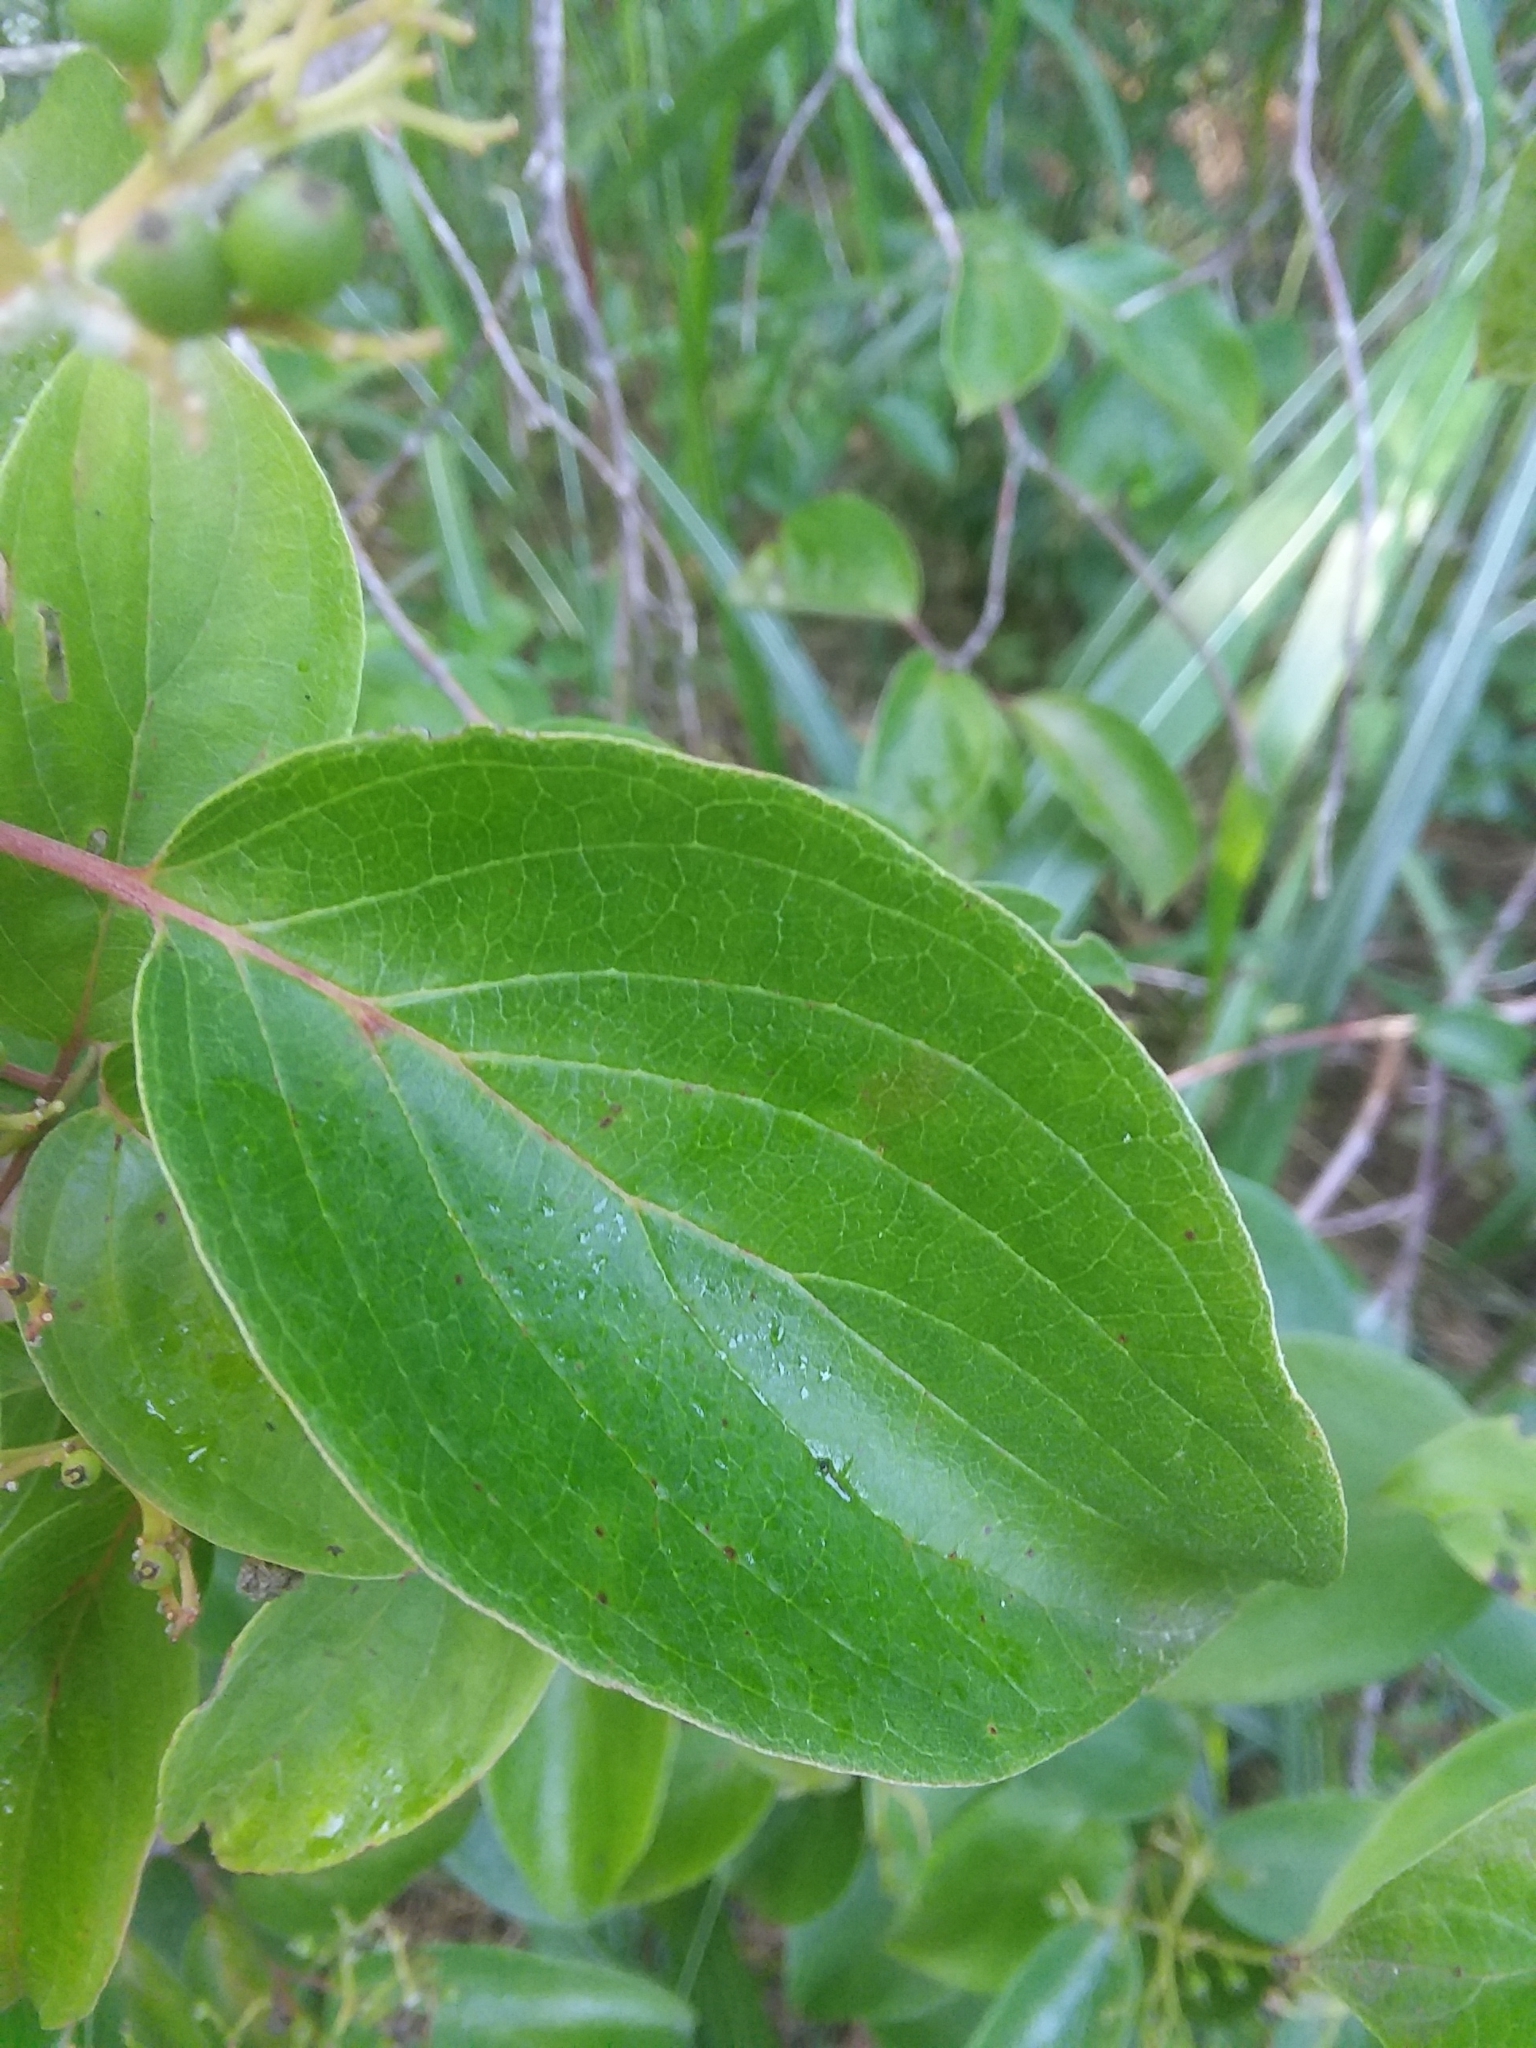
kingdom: Plantae
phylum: Tracheophyta
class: Magnoliopsida
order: Cornales
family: Cornaceae
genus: Cornus
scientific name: Cornus drummondii
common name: Rough-leaf dogwood
